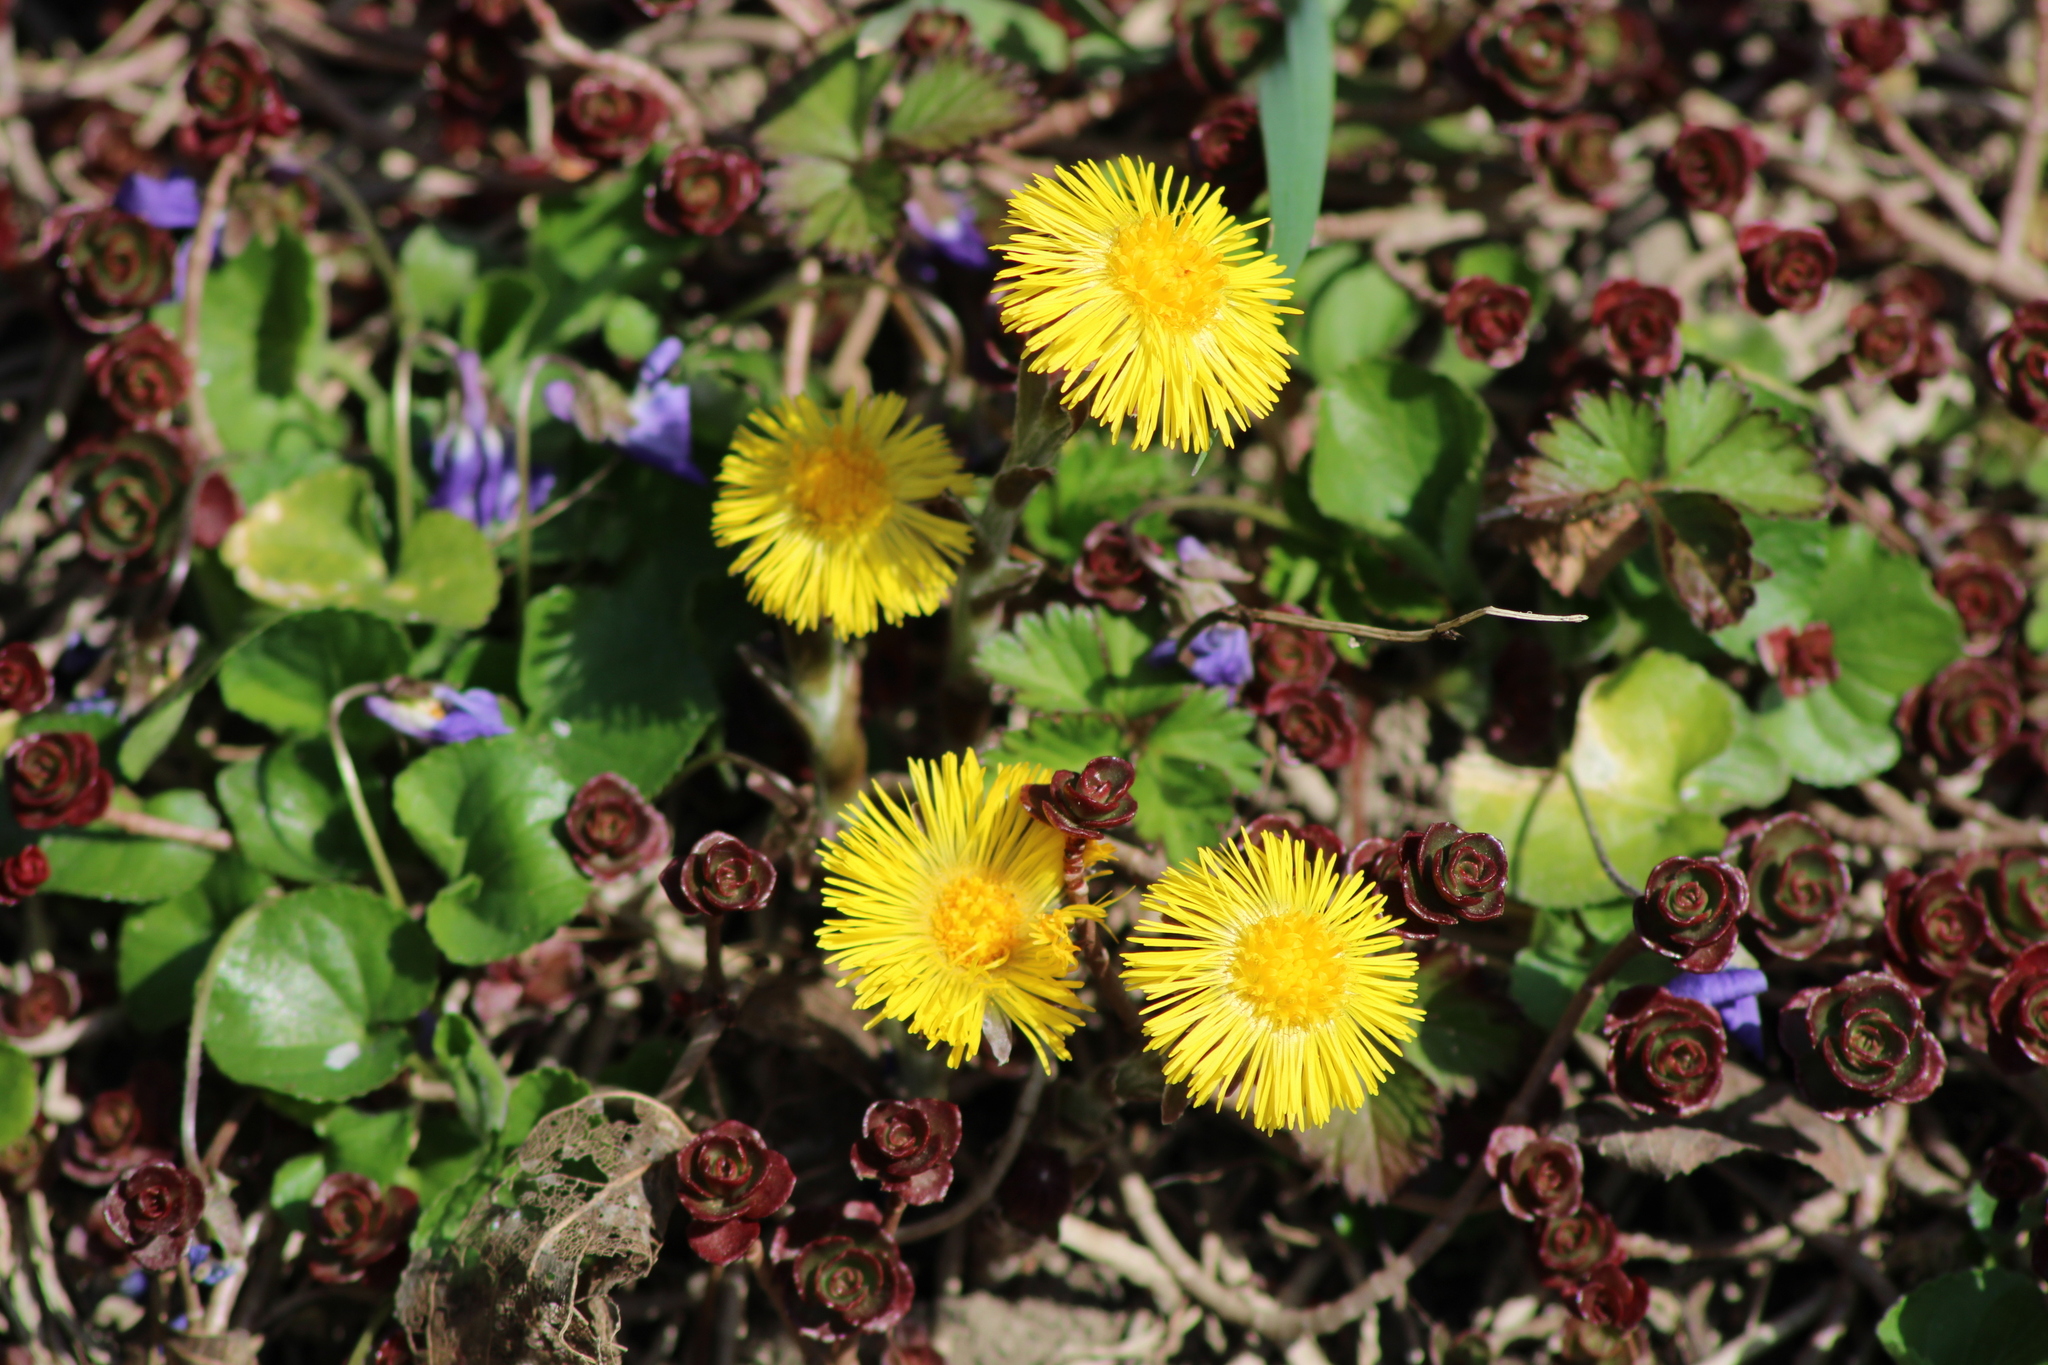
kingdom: Plantae
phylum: Tracheophyta
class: Magnoliopsida
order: Asterales
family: Asteraceae
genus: Tussilago
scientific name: Tussilago farfara
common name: Coltsfoot
